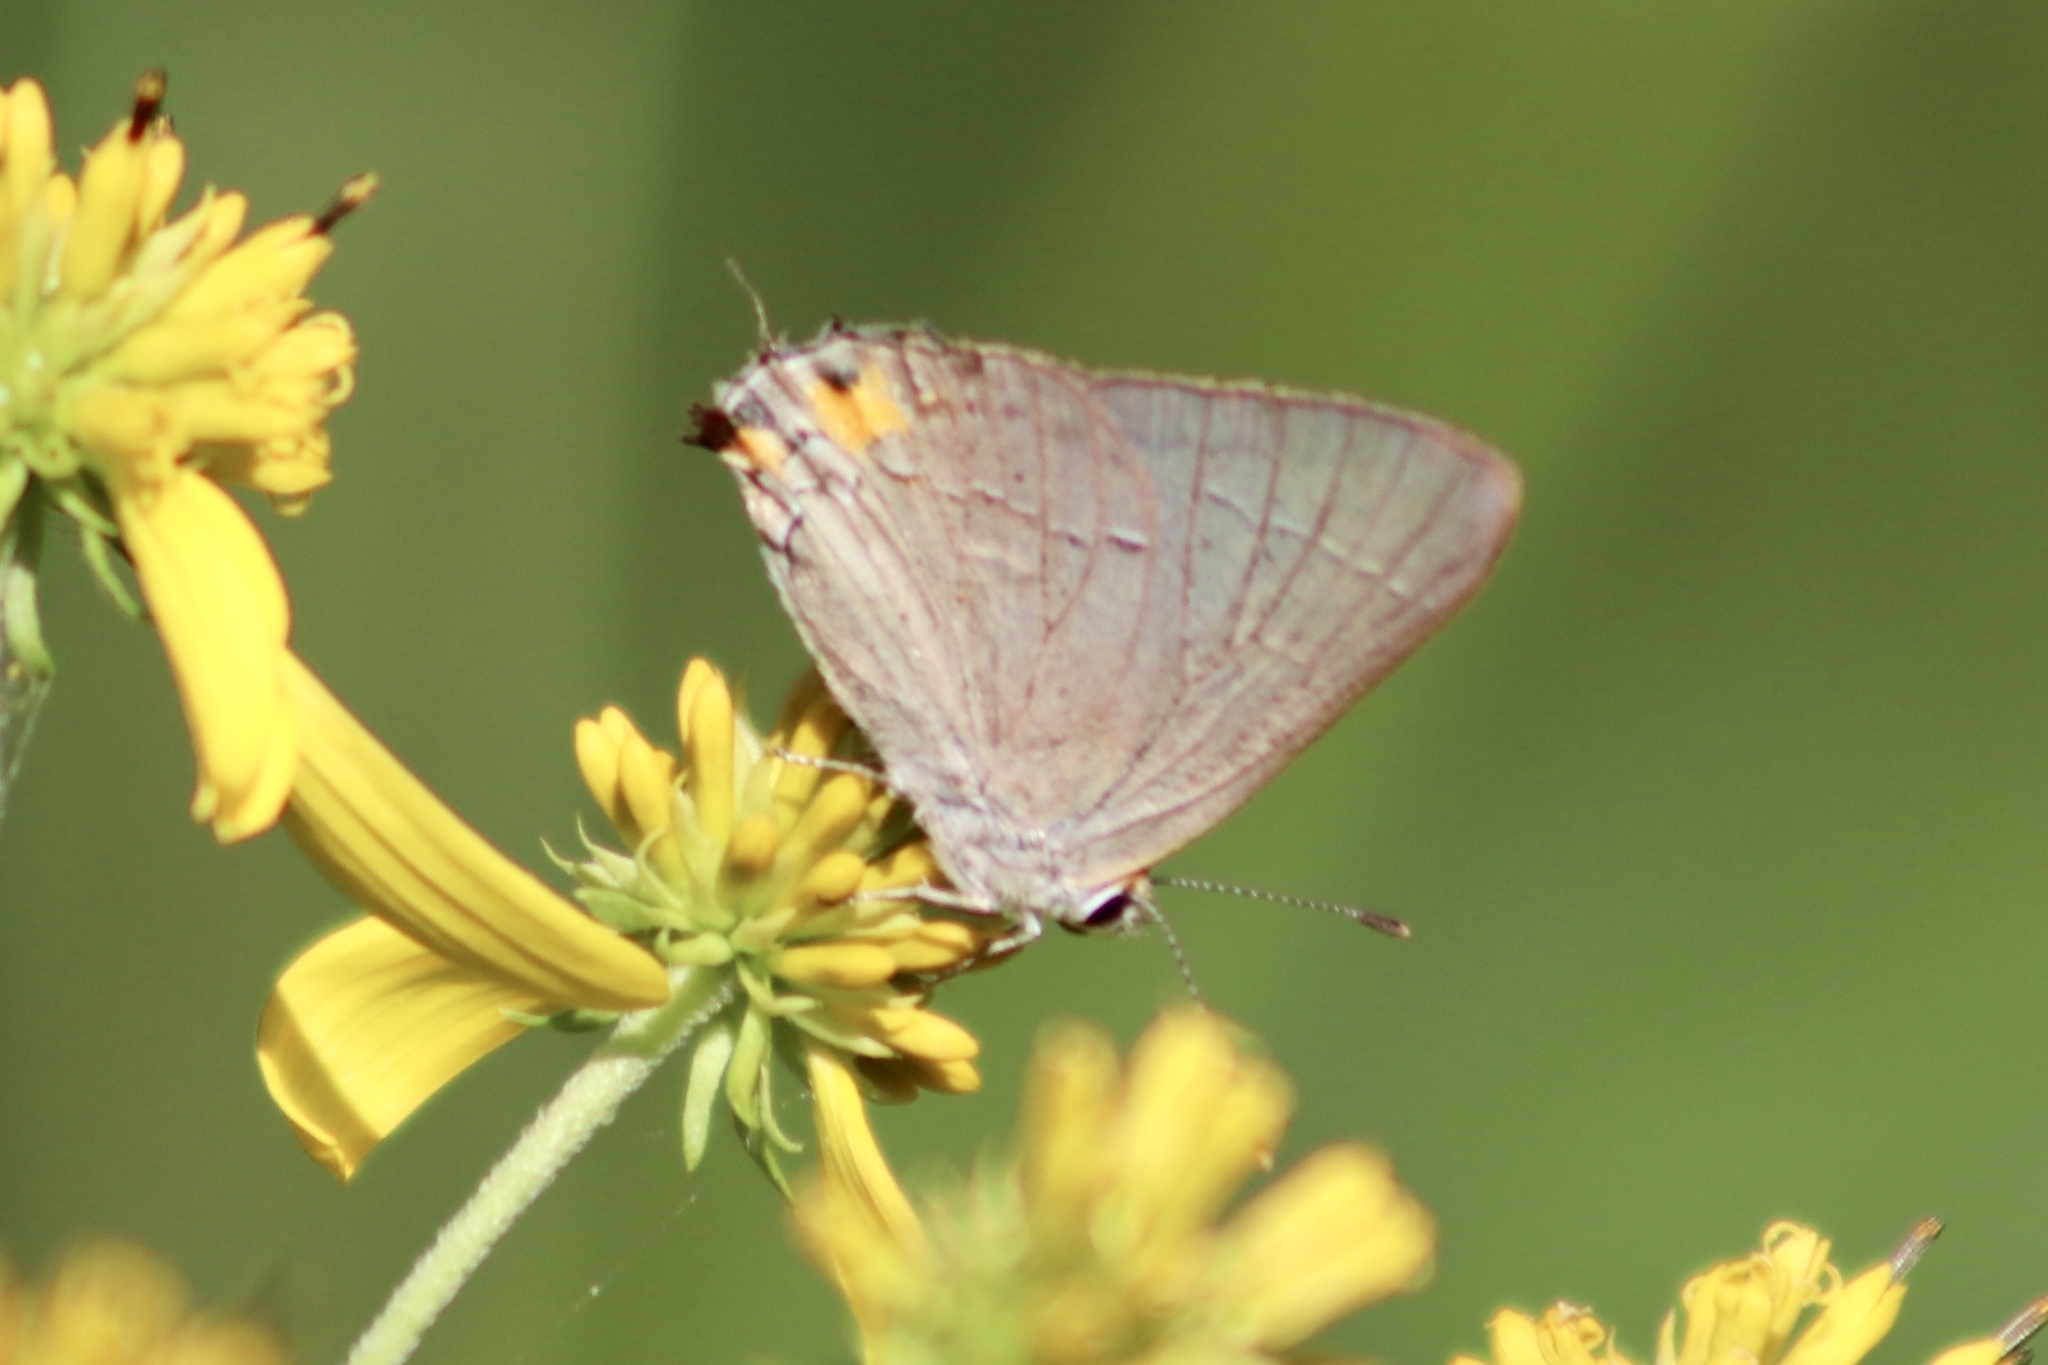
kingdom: Animalia
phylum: Arthropoda
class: Insecta
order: Lepidoptera
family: Lycaenidae
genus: Strymon
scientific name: Strymon melinus
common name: Gray hairstreak
